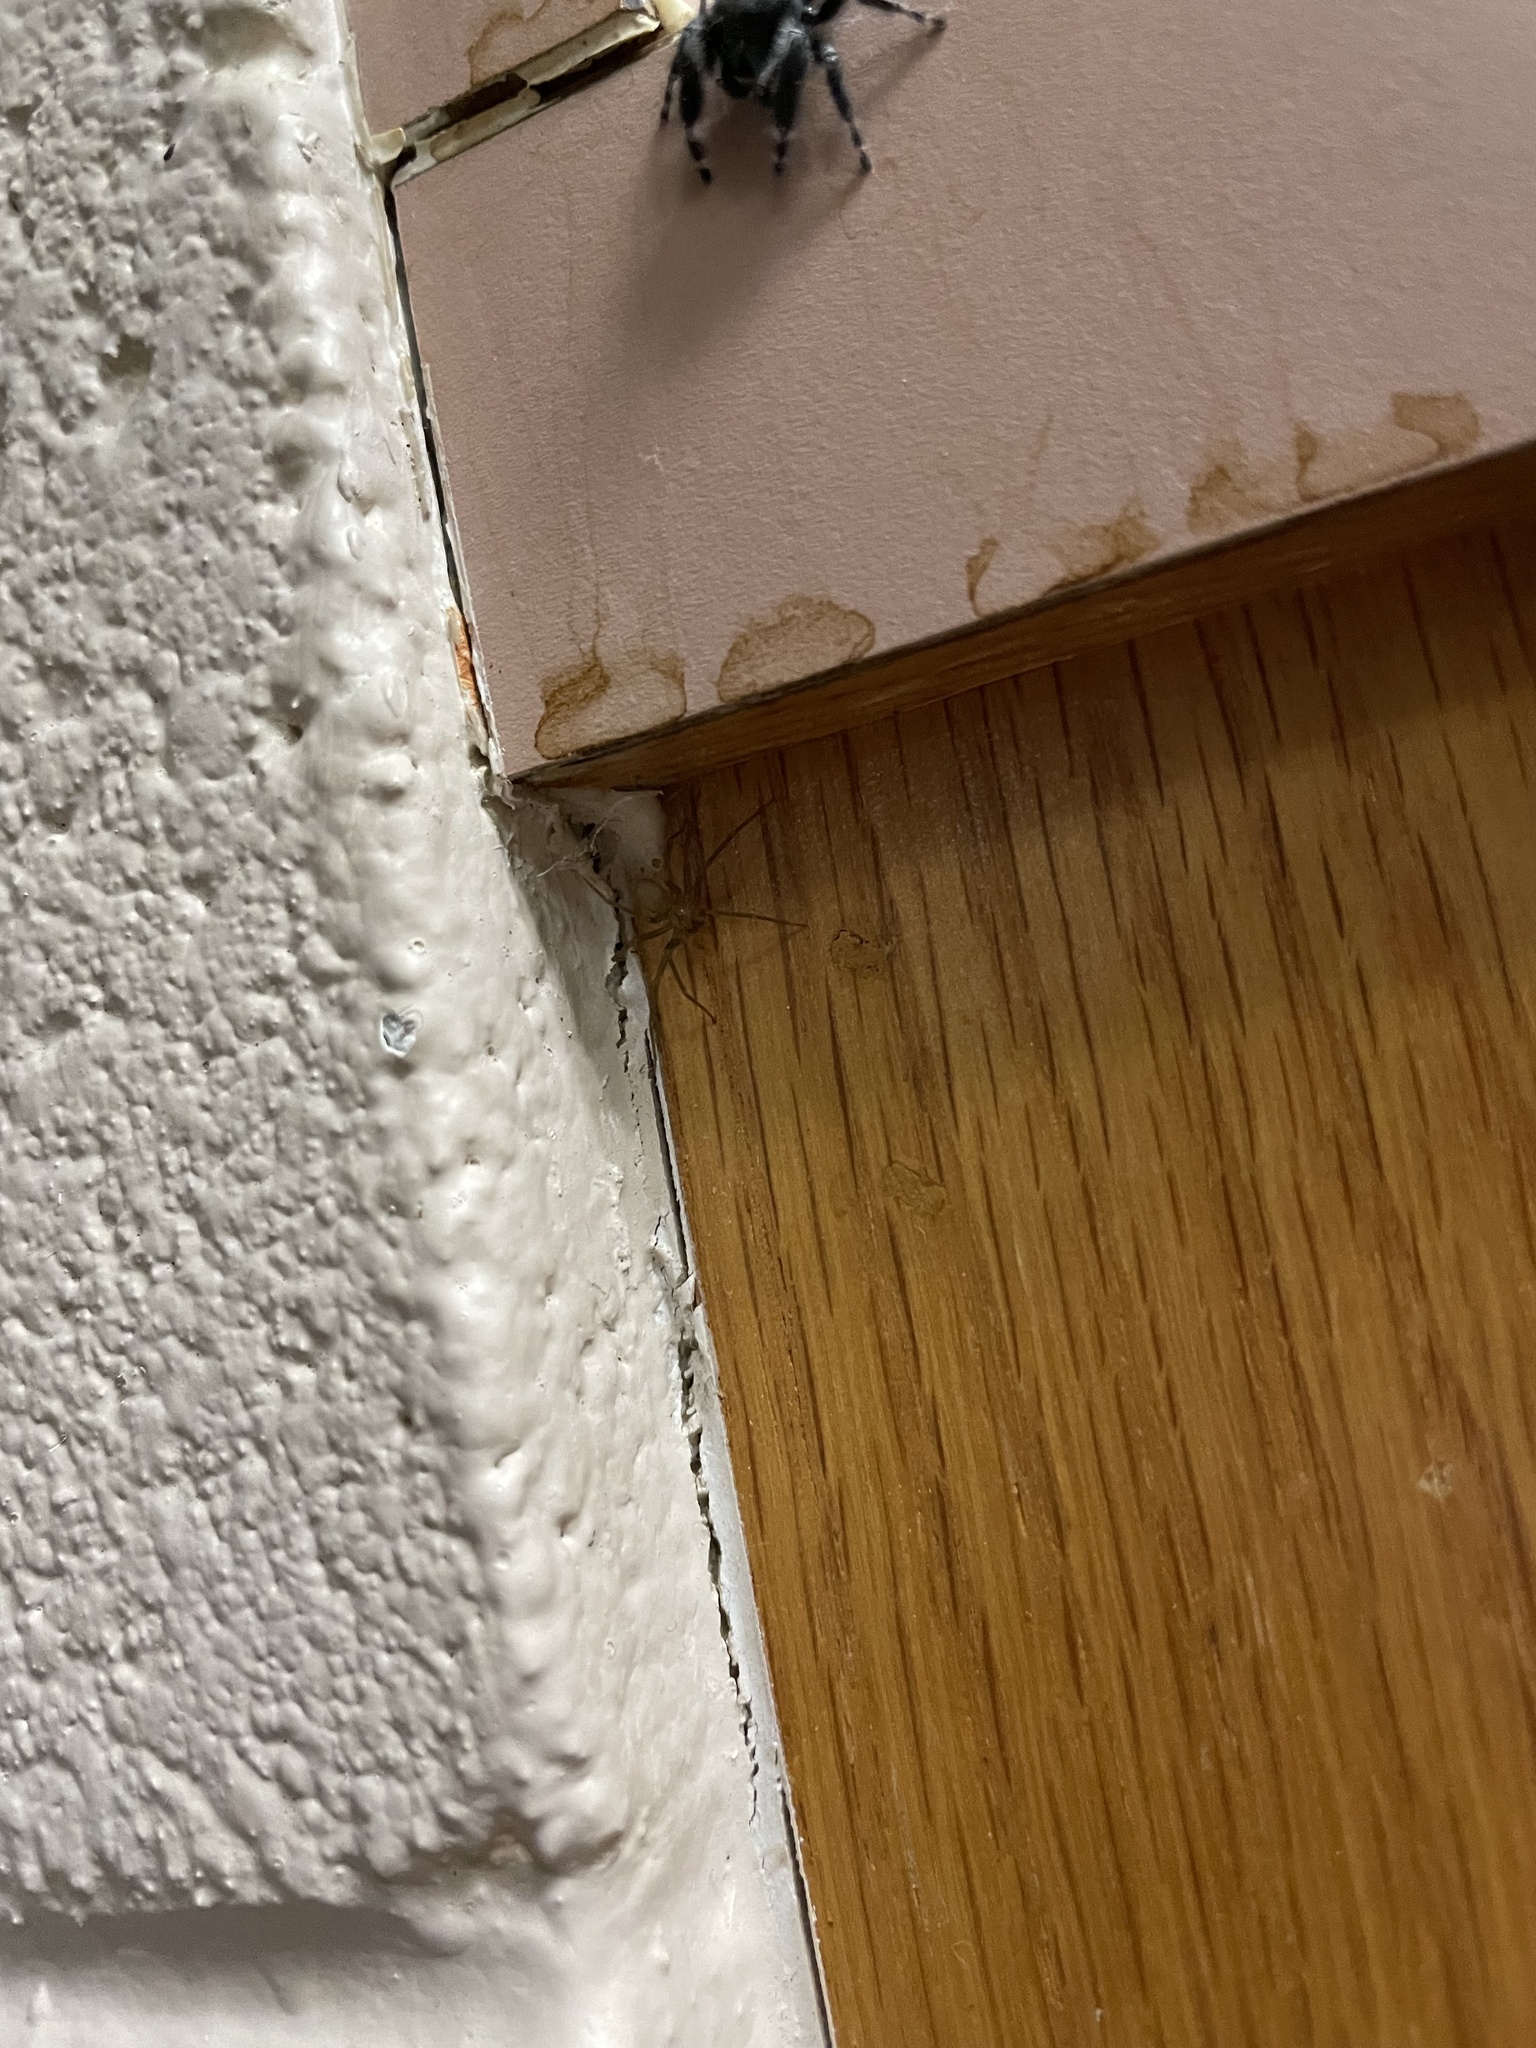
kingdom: Animalia
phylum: Arthropoda
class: Arachnida
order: Araneae
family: Sicariidae
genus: Loxosceles
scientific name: Loxosceles reclusa
